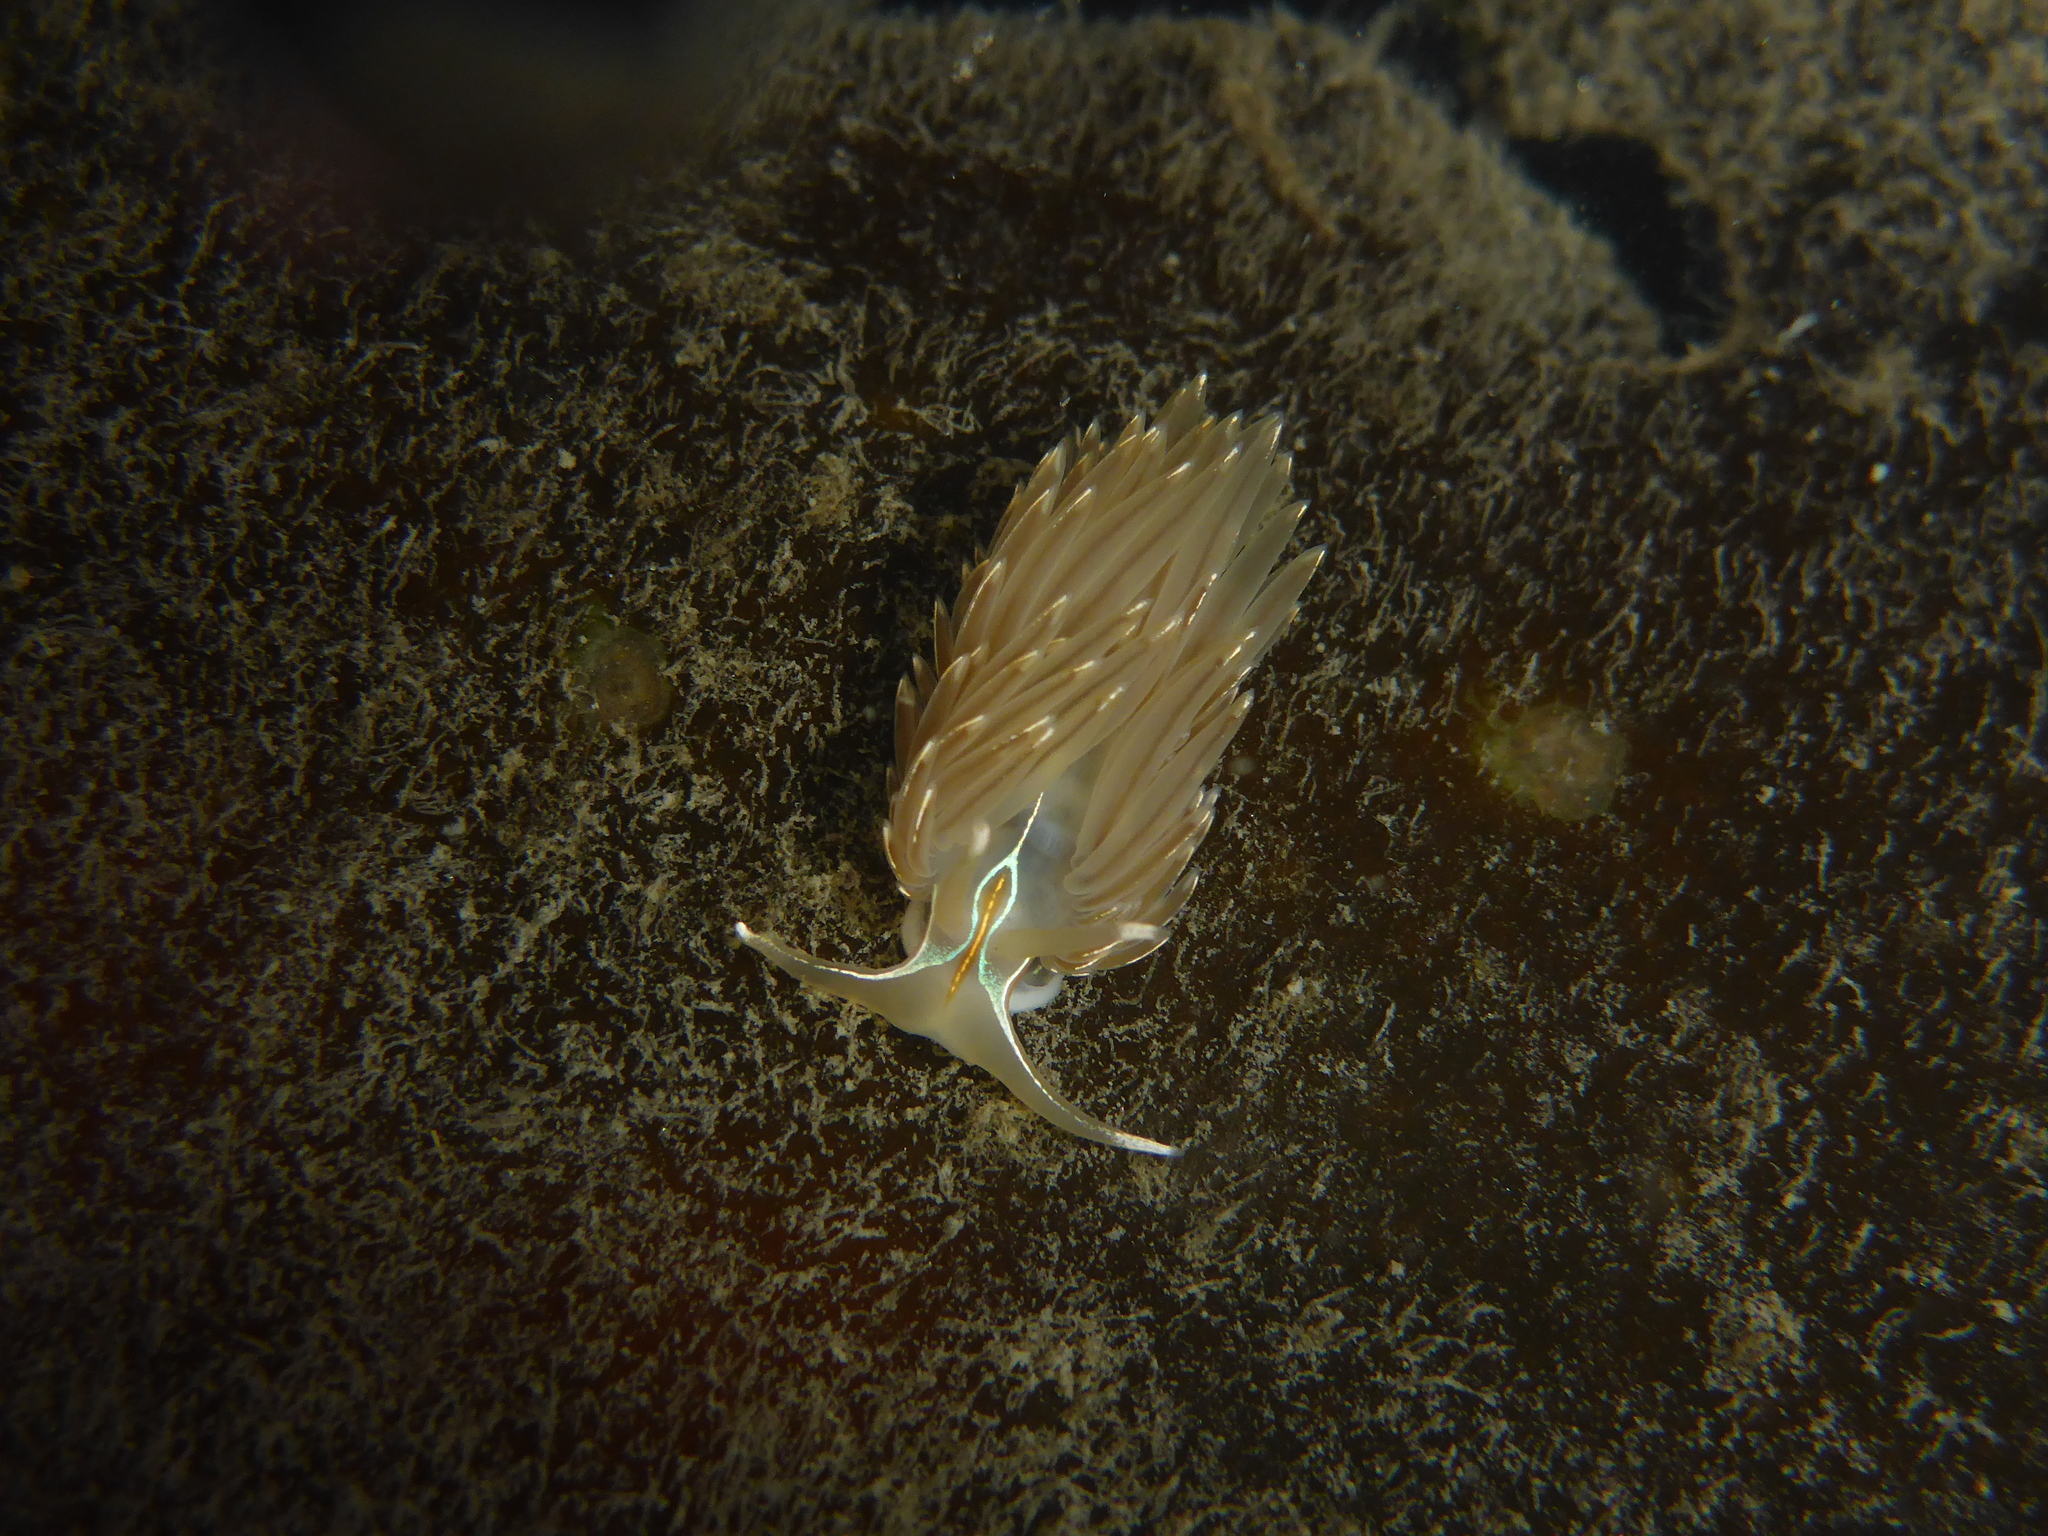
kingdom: Animalia
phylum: Mollusca
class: Gastropoda
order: Nudibranchia
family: Myrrhinidae
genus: Hermissenda
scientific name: Hermissenda crassicornis
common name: Hermissenda
